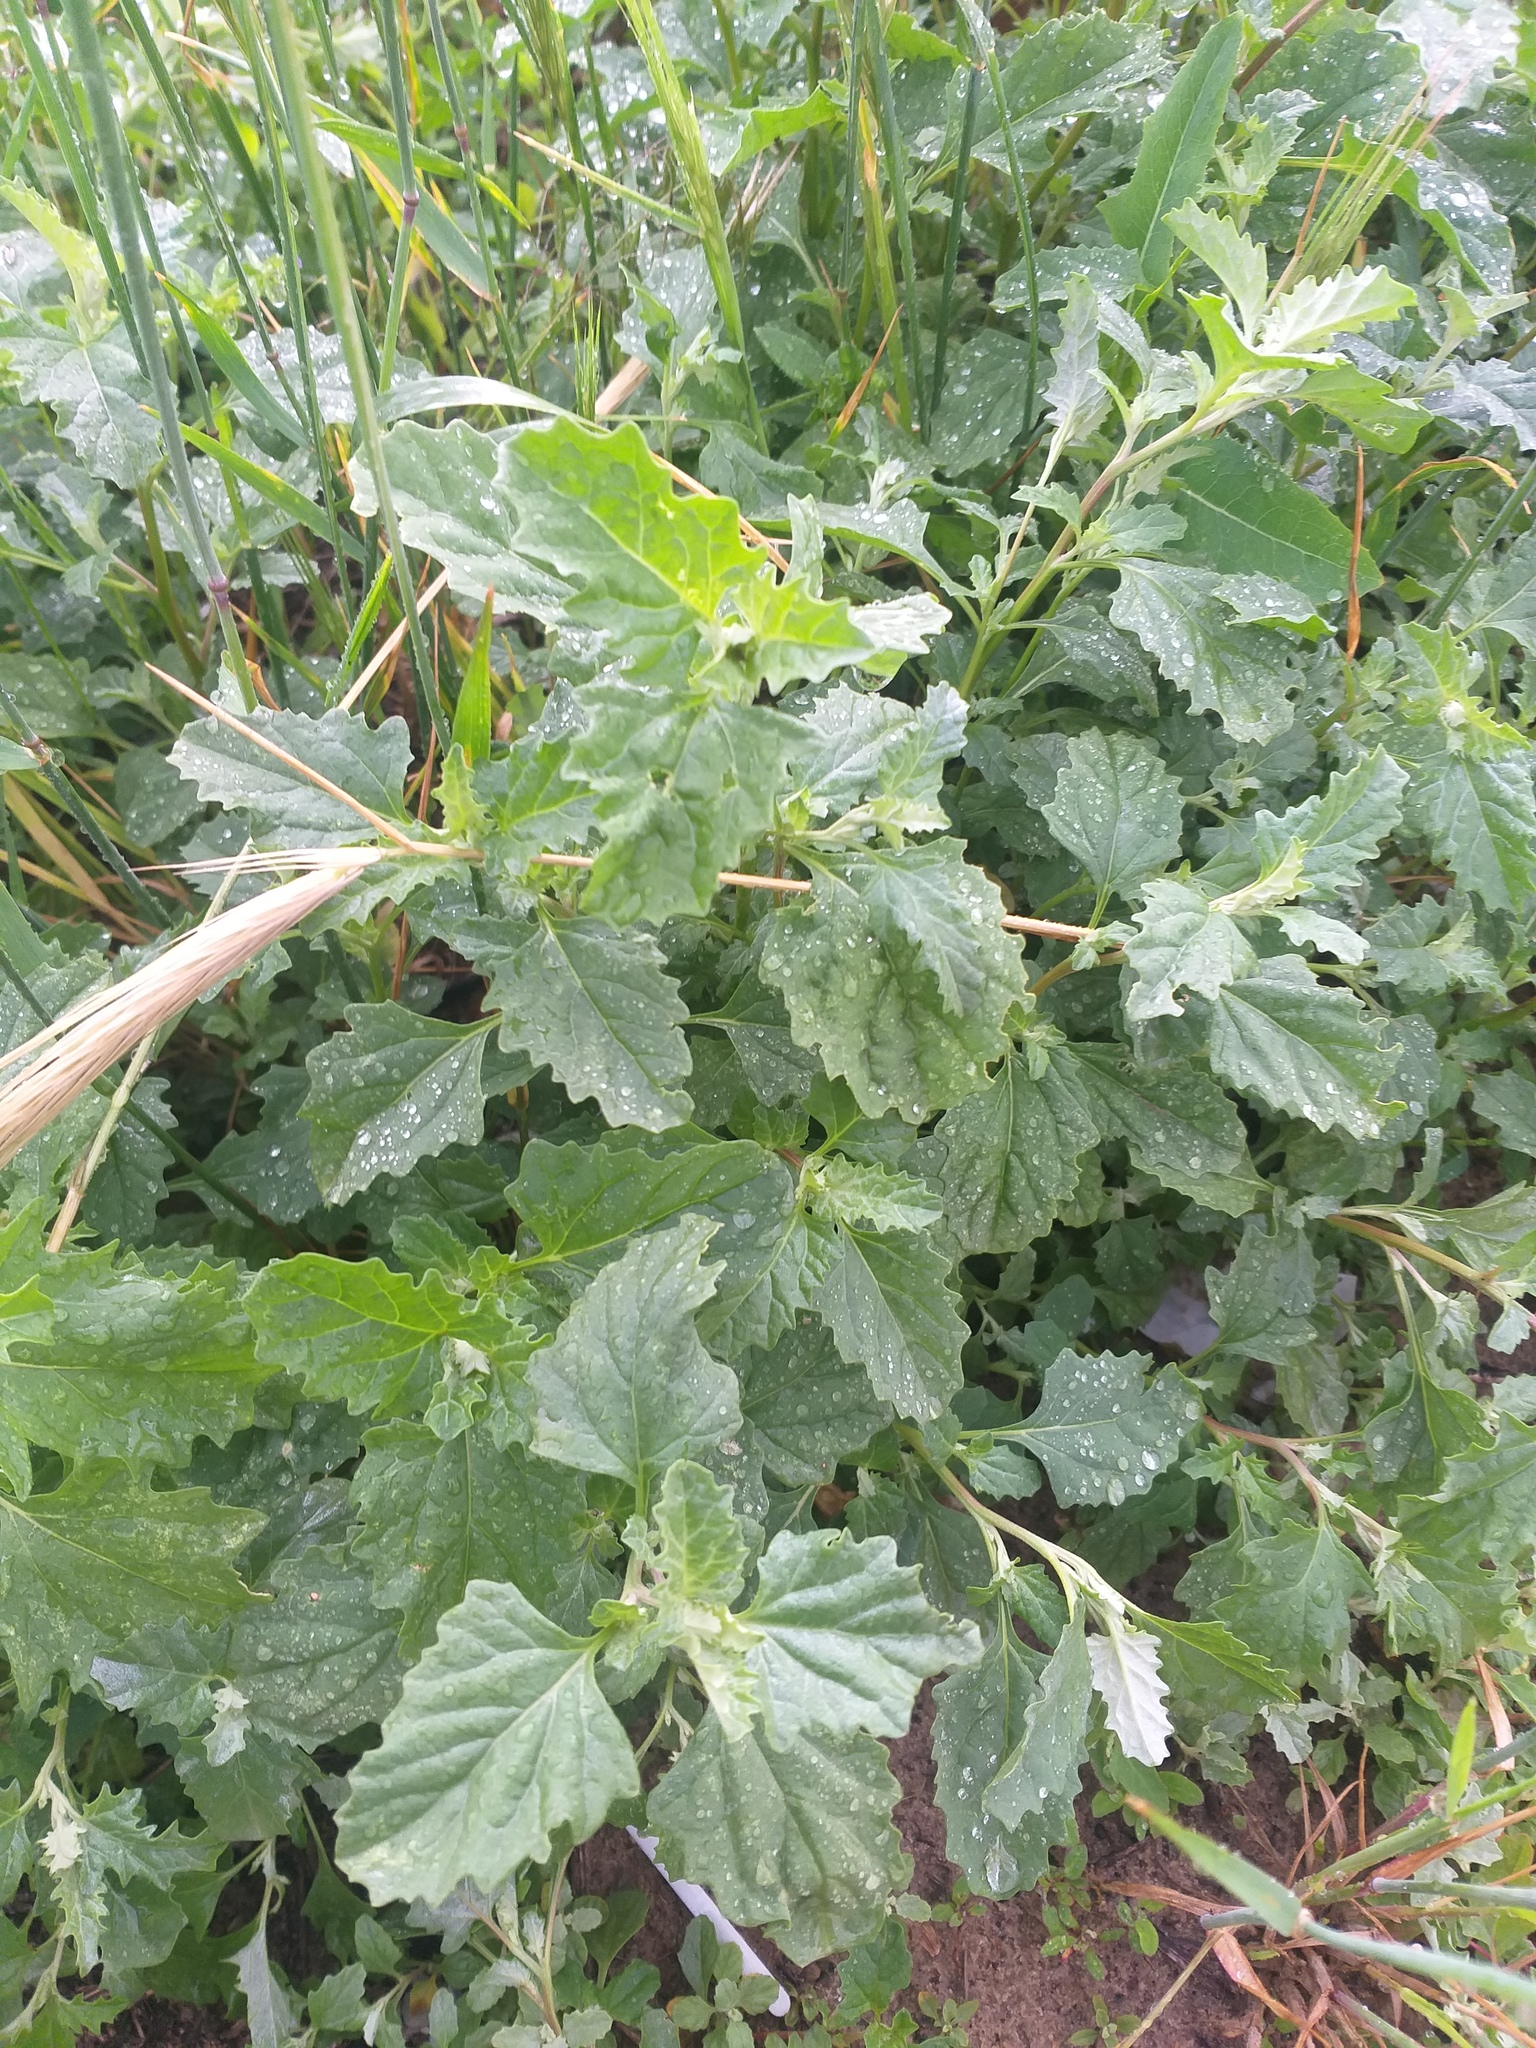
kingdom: Plantae
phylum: Tracheophyta
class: Magnoliopsida
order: Caryophyllales
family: Amaranthaceae
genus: Atriplex
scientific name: Atriplex tatarica
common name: Tatarian orache
